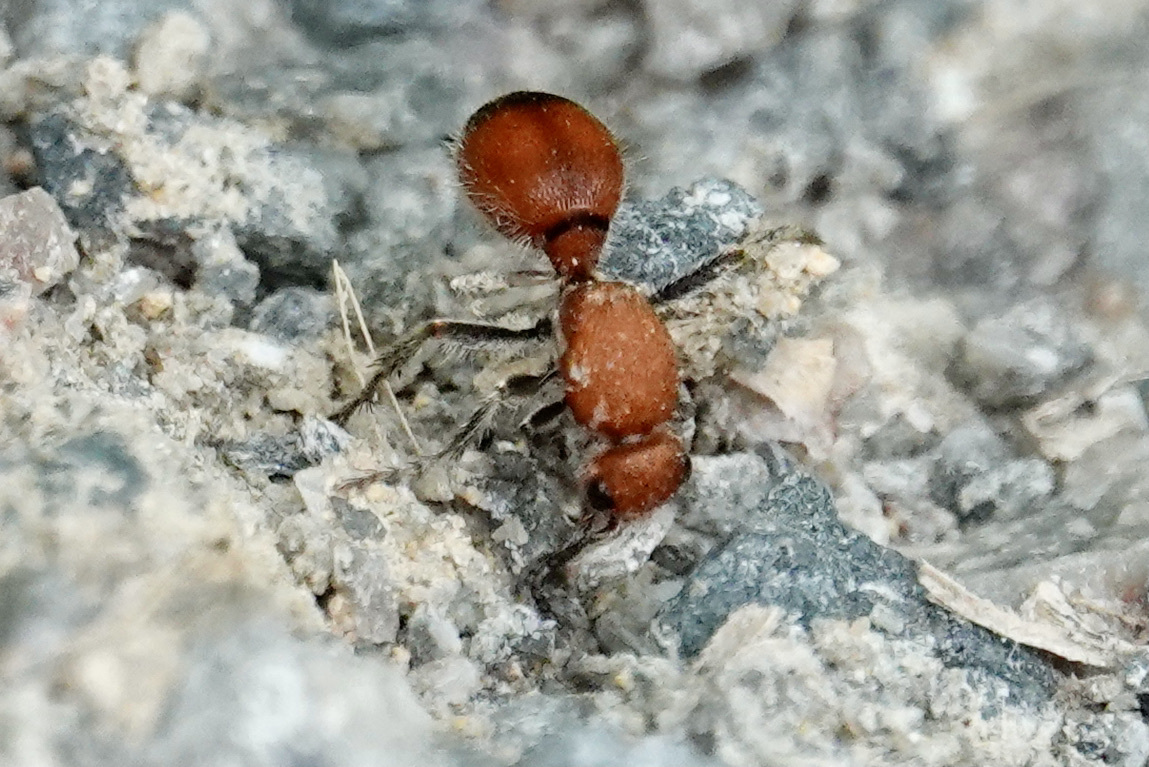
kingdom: Animalia
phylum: Arthropoda
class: Insecta
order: Hymenoptera
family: Mutillidae
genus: Dasymutilla
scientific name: Dasymutilla
